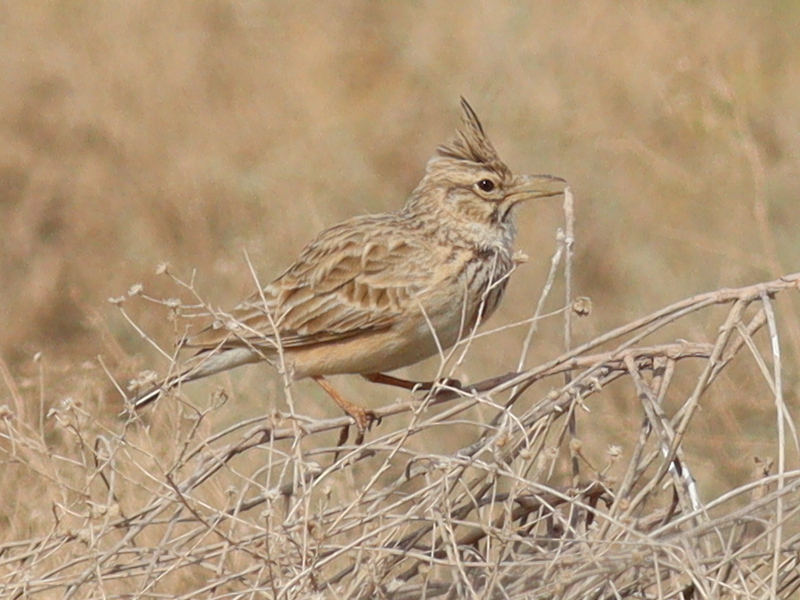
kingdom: Animalia
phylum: Chordata
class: Aves
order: Passeriformes
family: Alaudidae
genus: Galerida
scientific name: Galerida cristata
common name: Crested lark
